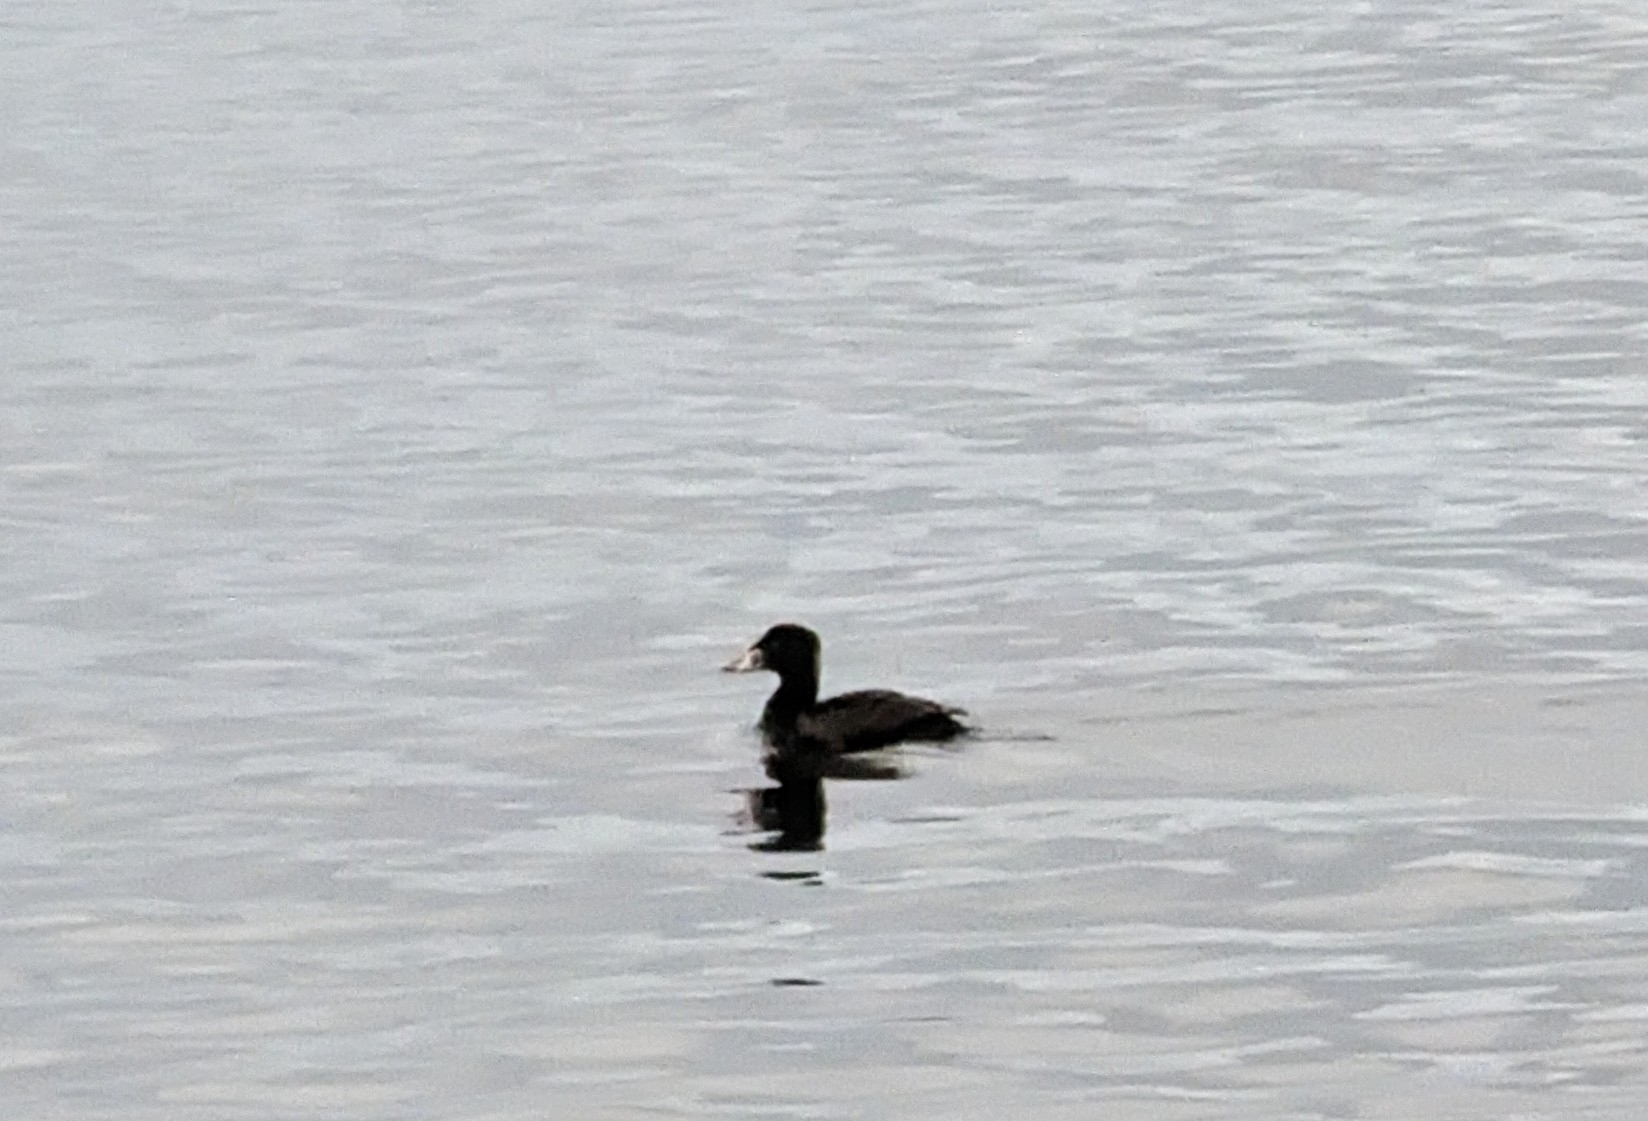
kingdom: Animalia
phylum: Chordata
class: Aves
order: Anseriformes
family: Anatidae
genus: Melanitta
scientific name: Melanitta perspicillata
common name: Surf scoter
